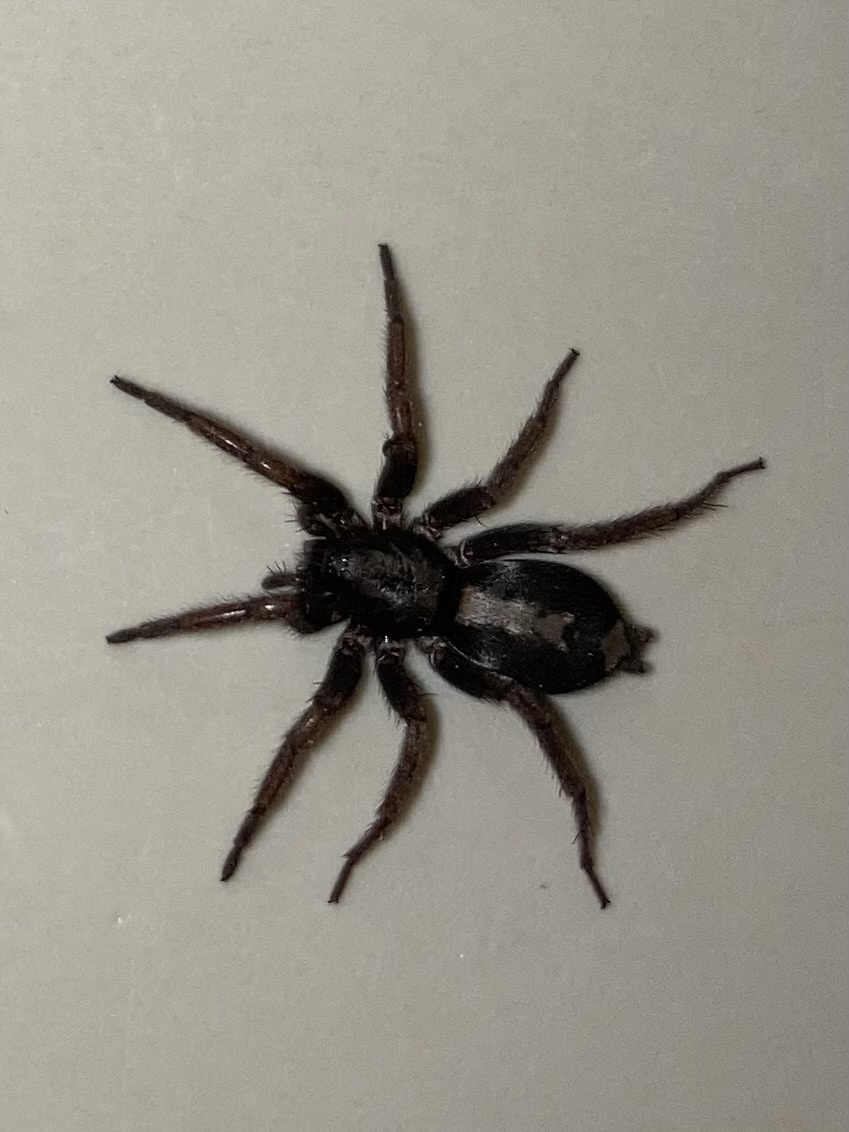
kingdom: Animalia
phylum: Arthropoda
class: Arachnida
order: Araneae
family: Gnaphosidae
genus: Herpyllus
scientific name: Herpyllus ecclesiasticus
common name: Eastern parson spider
